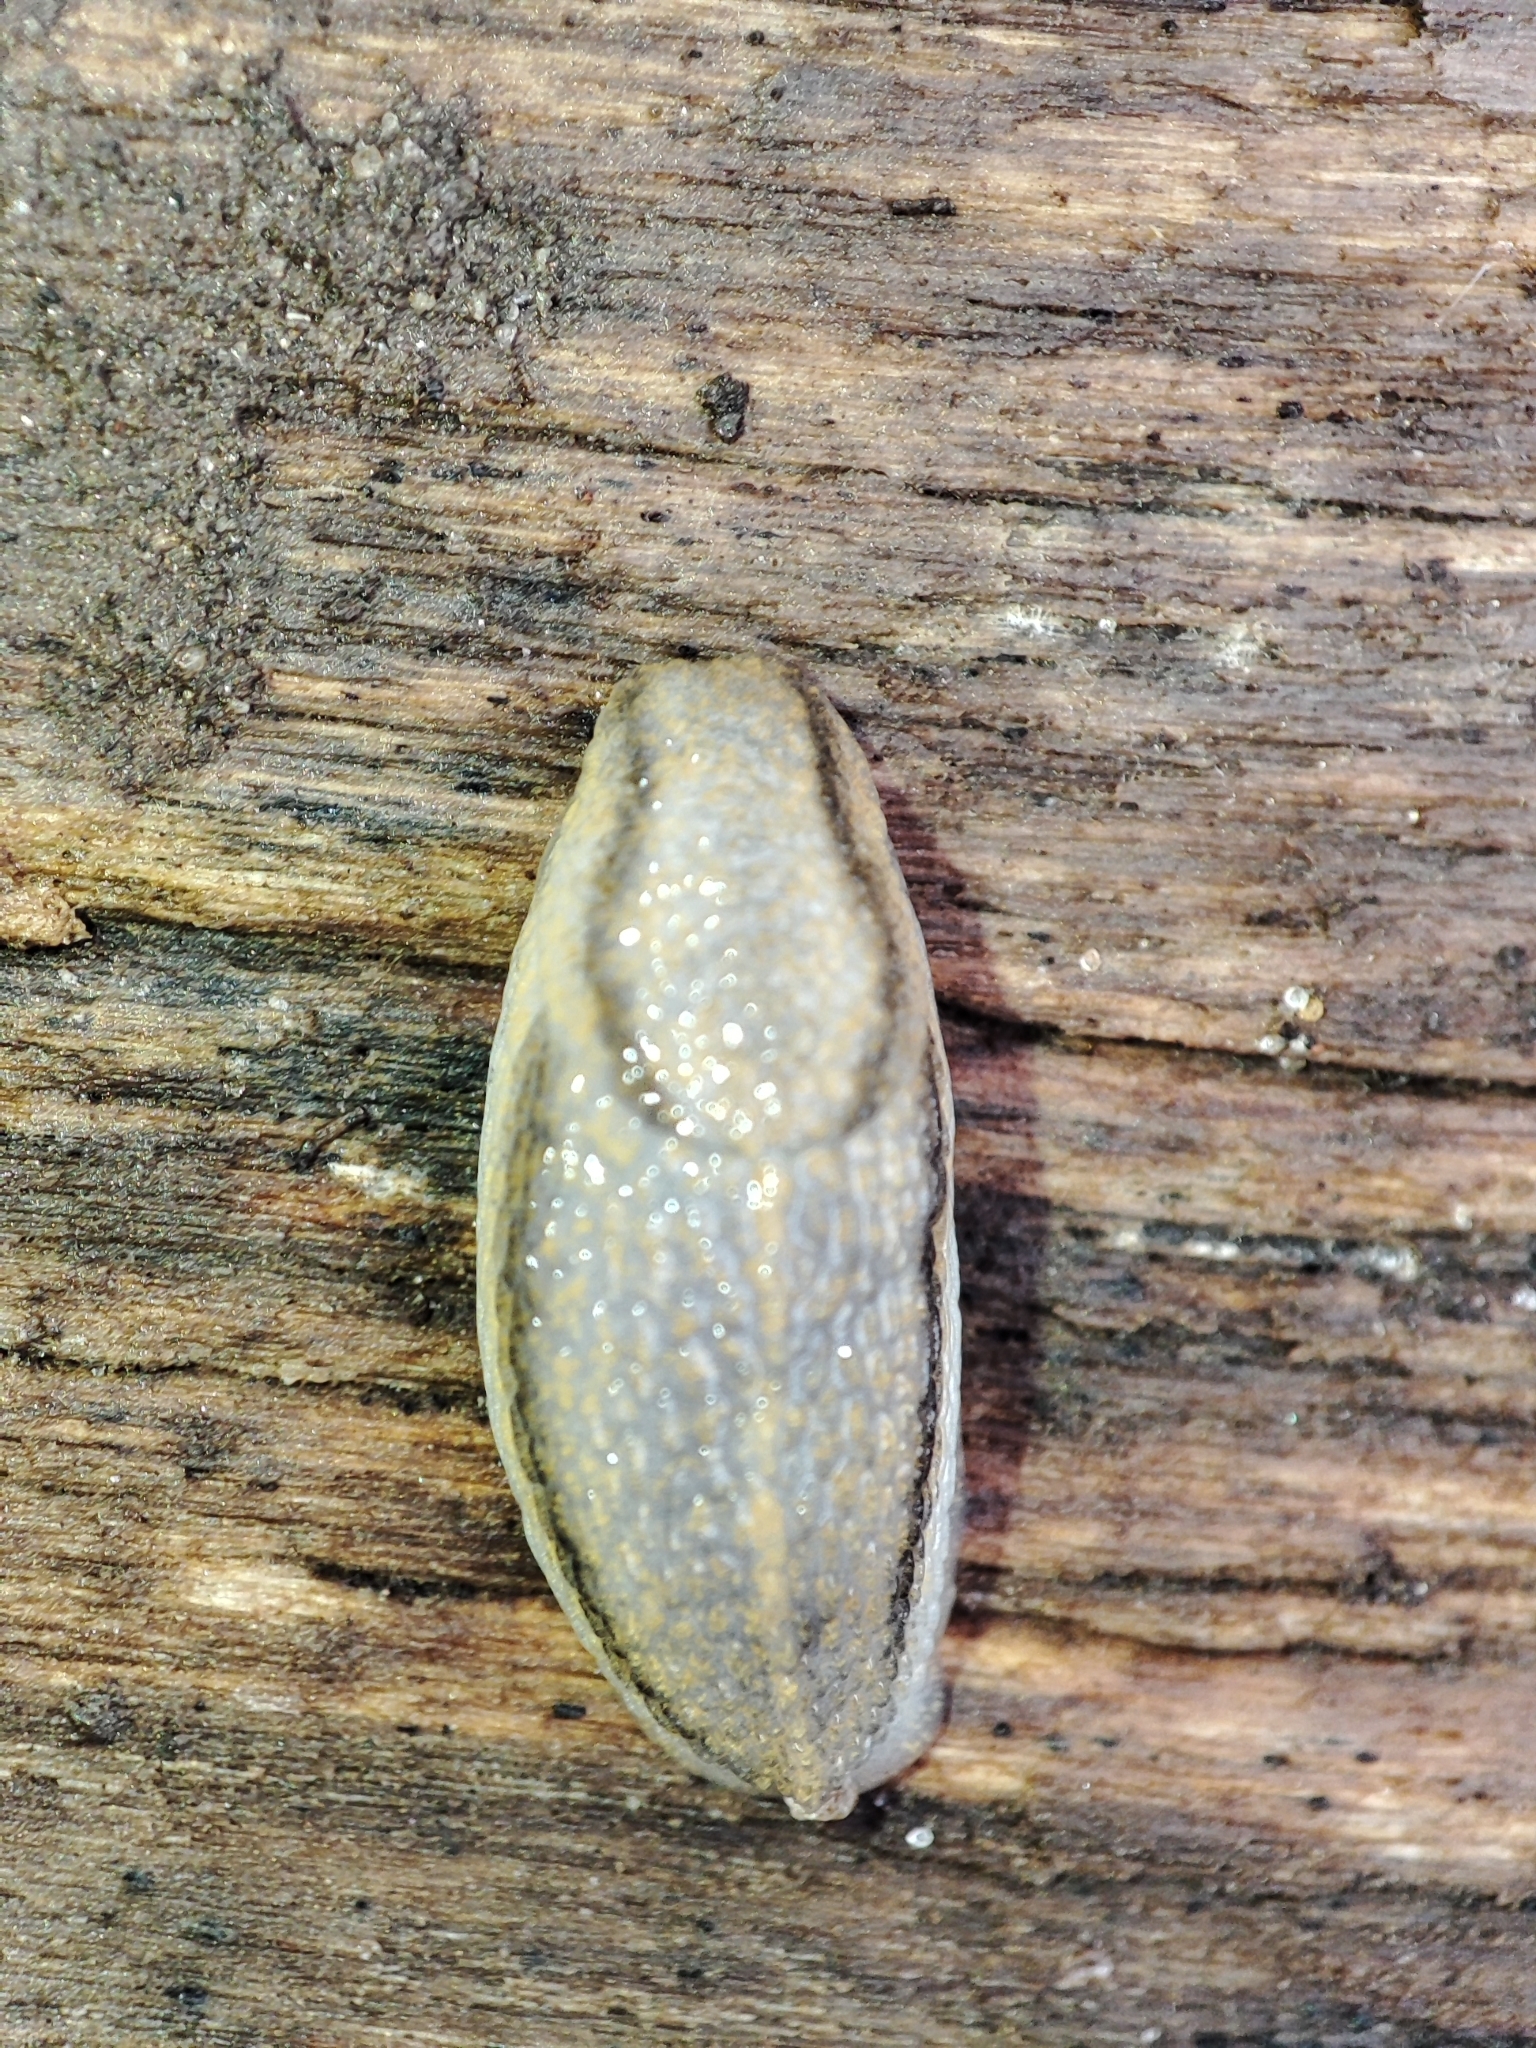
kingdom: Animalia
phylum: Mollusca
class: Gastropoda
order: Stylommatophora
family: Arionidae
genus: Arion
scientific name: Arion fasciatus
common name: Orange-banded arion
